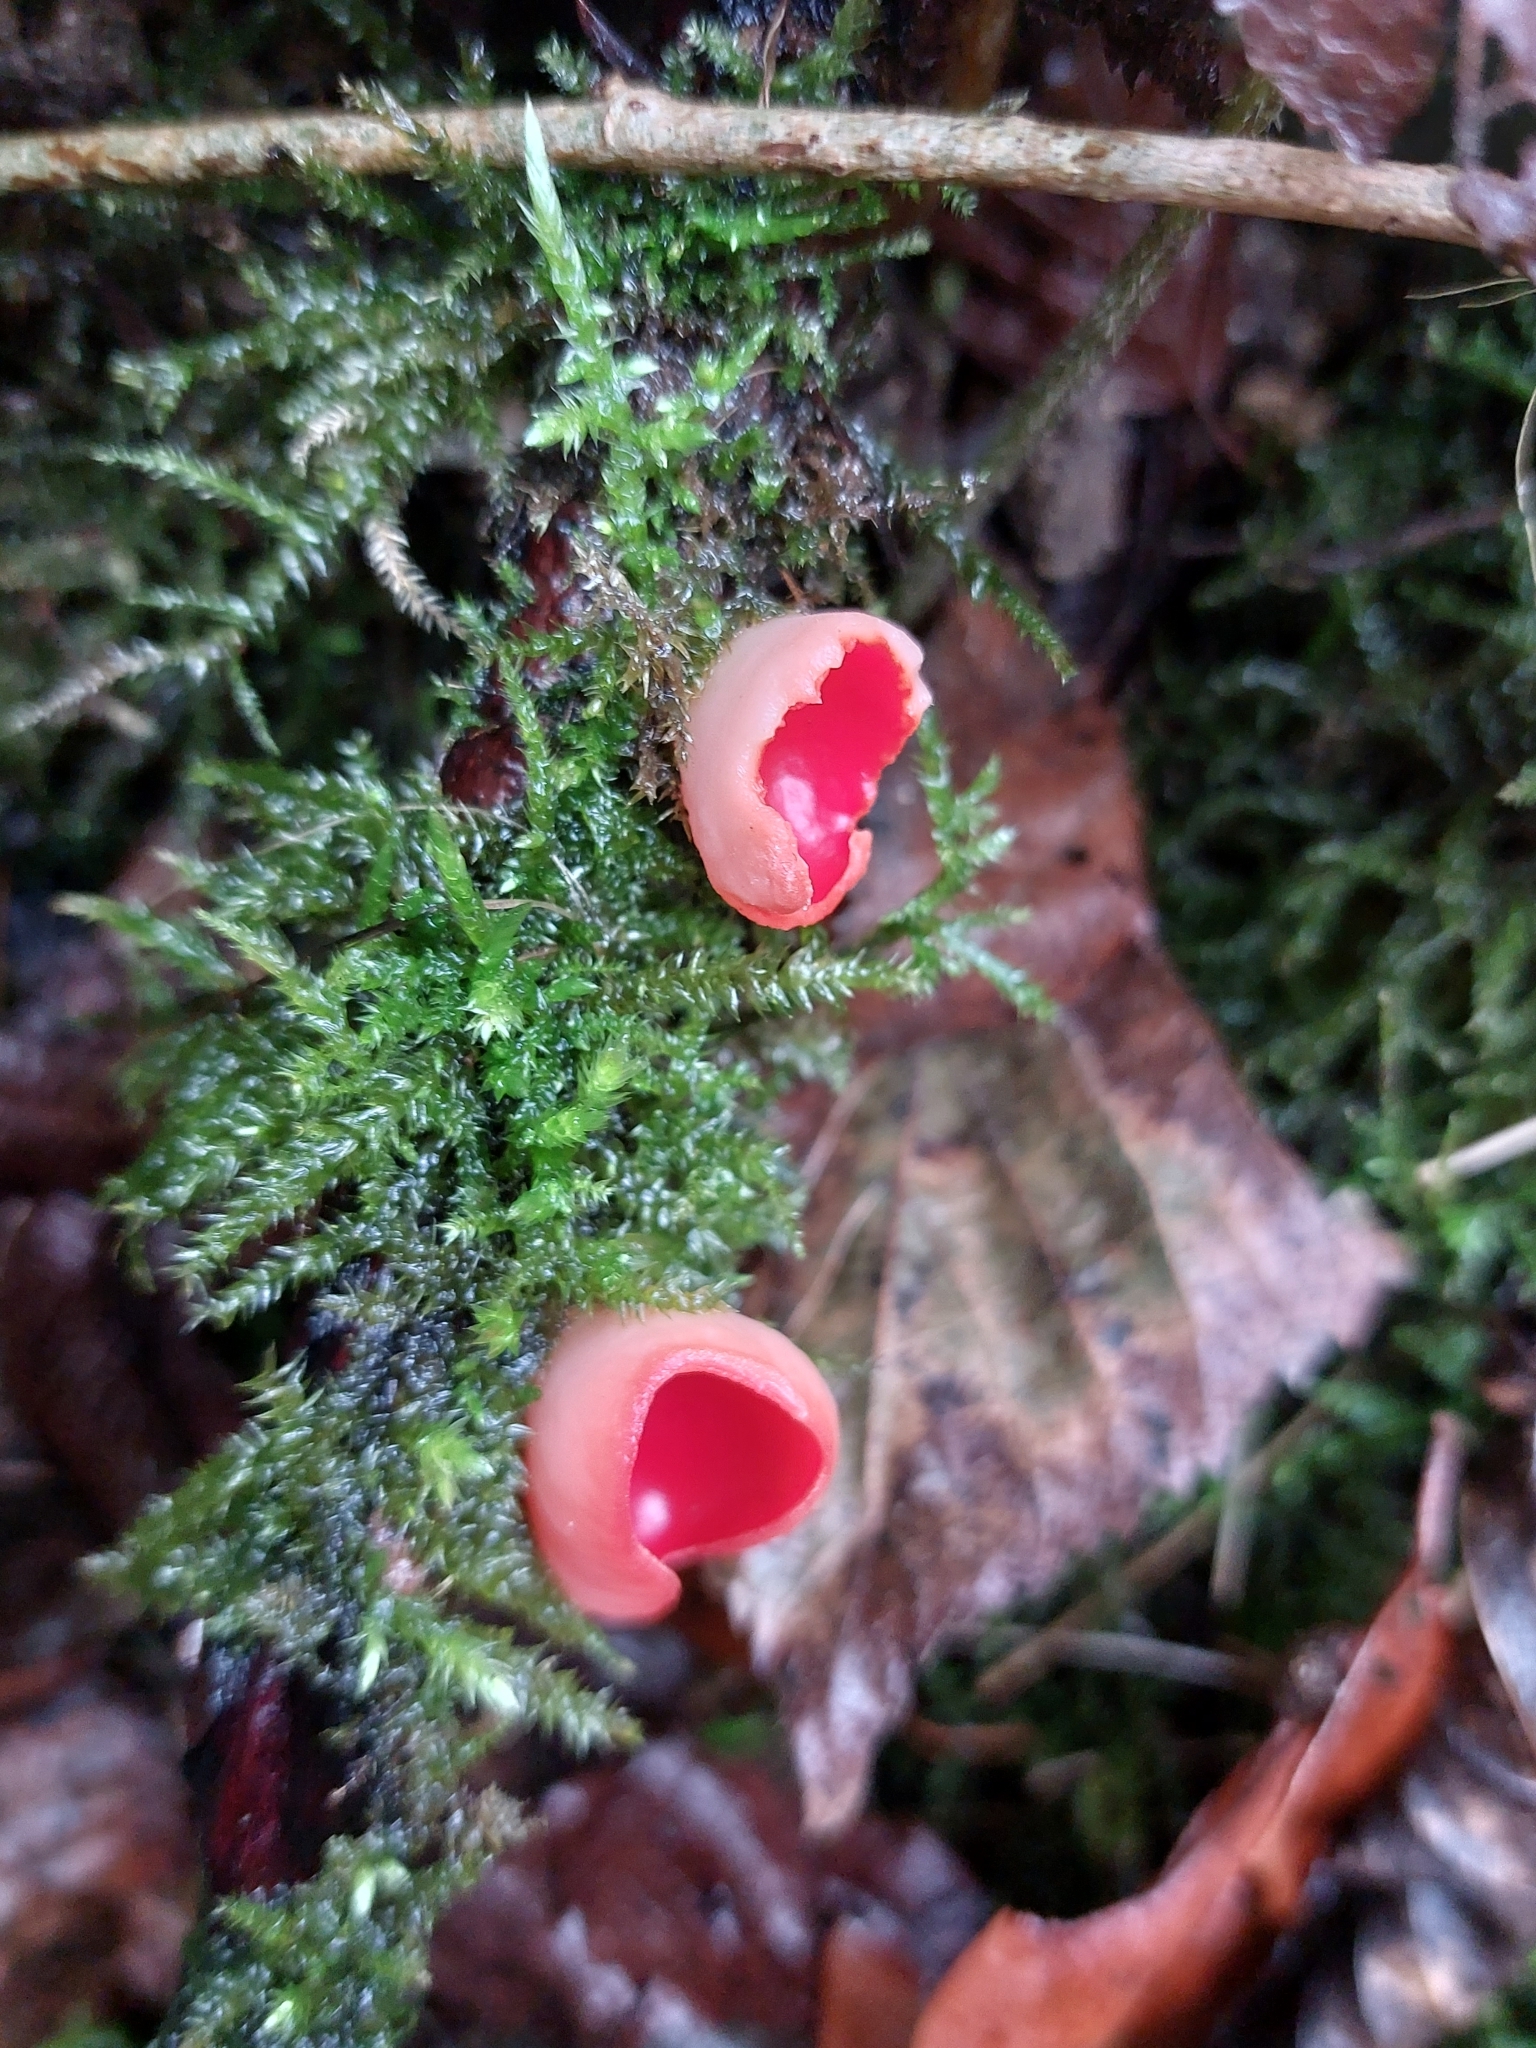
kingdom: Fungi
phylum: Ascomycota
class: Pezizomycetes
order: Pezizales
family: Sarcoscyphaceae
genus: Sarcoscypha
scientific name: Sarcoscypha
